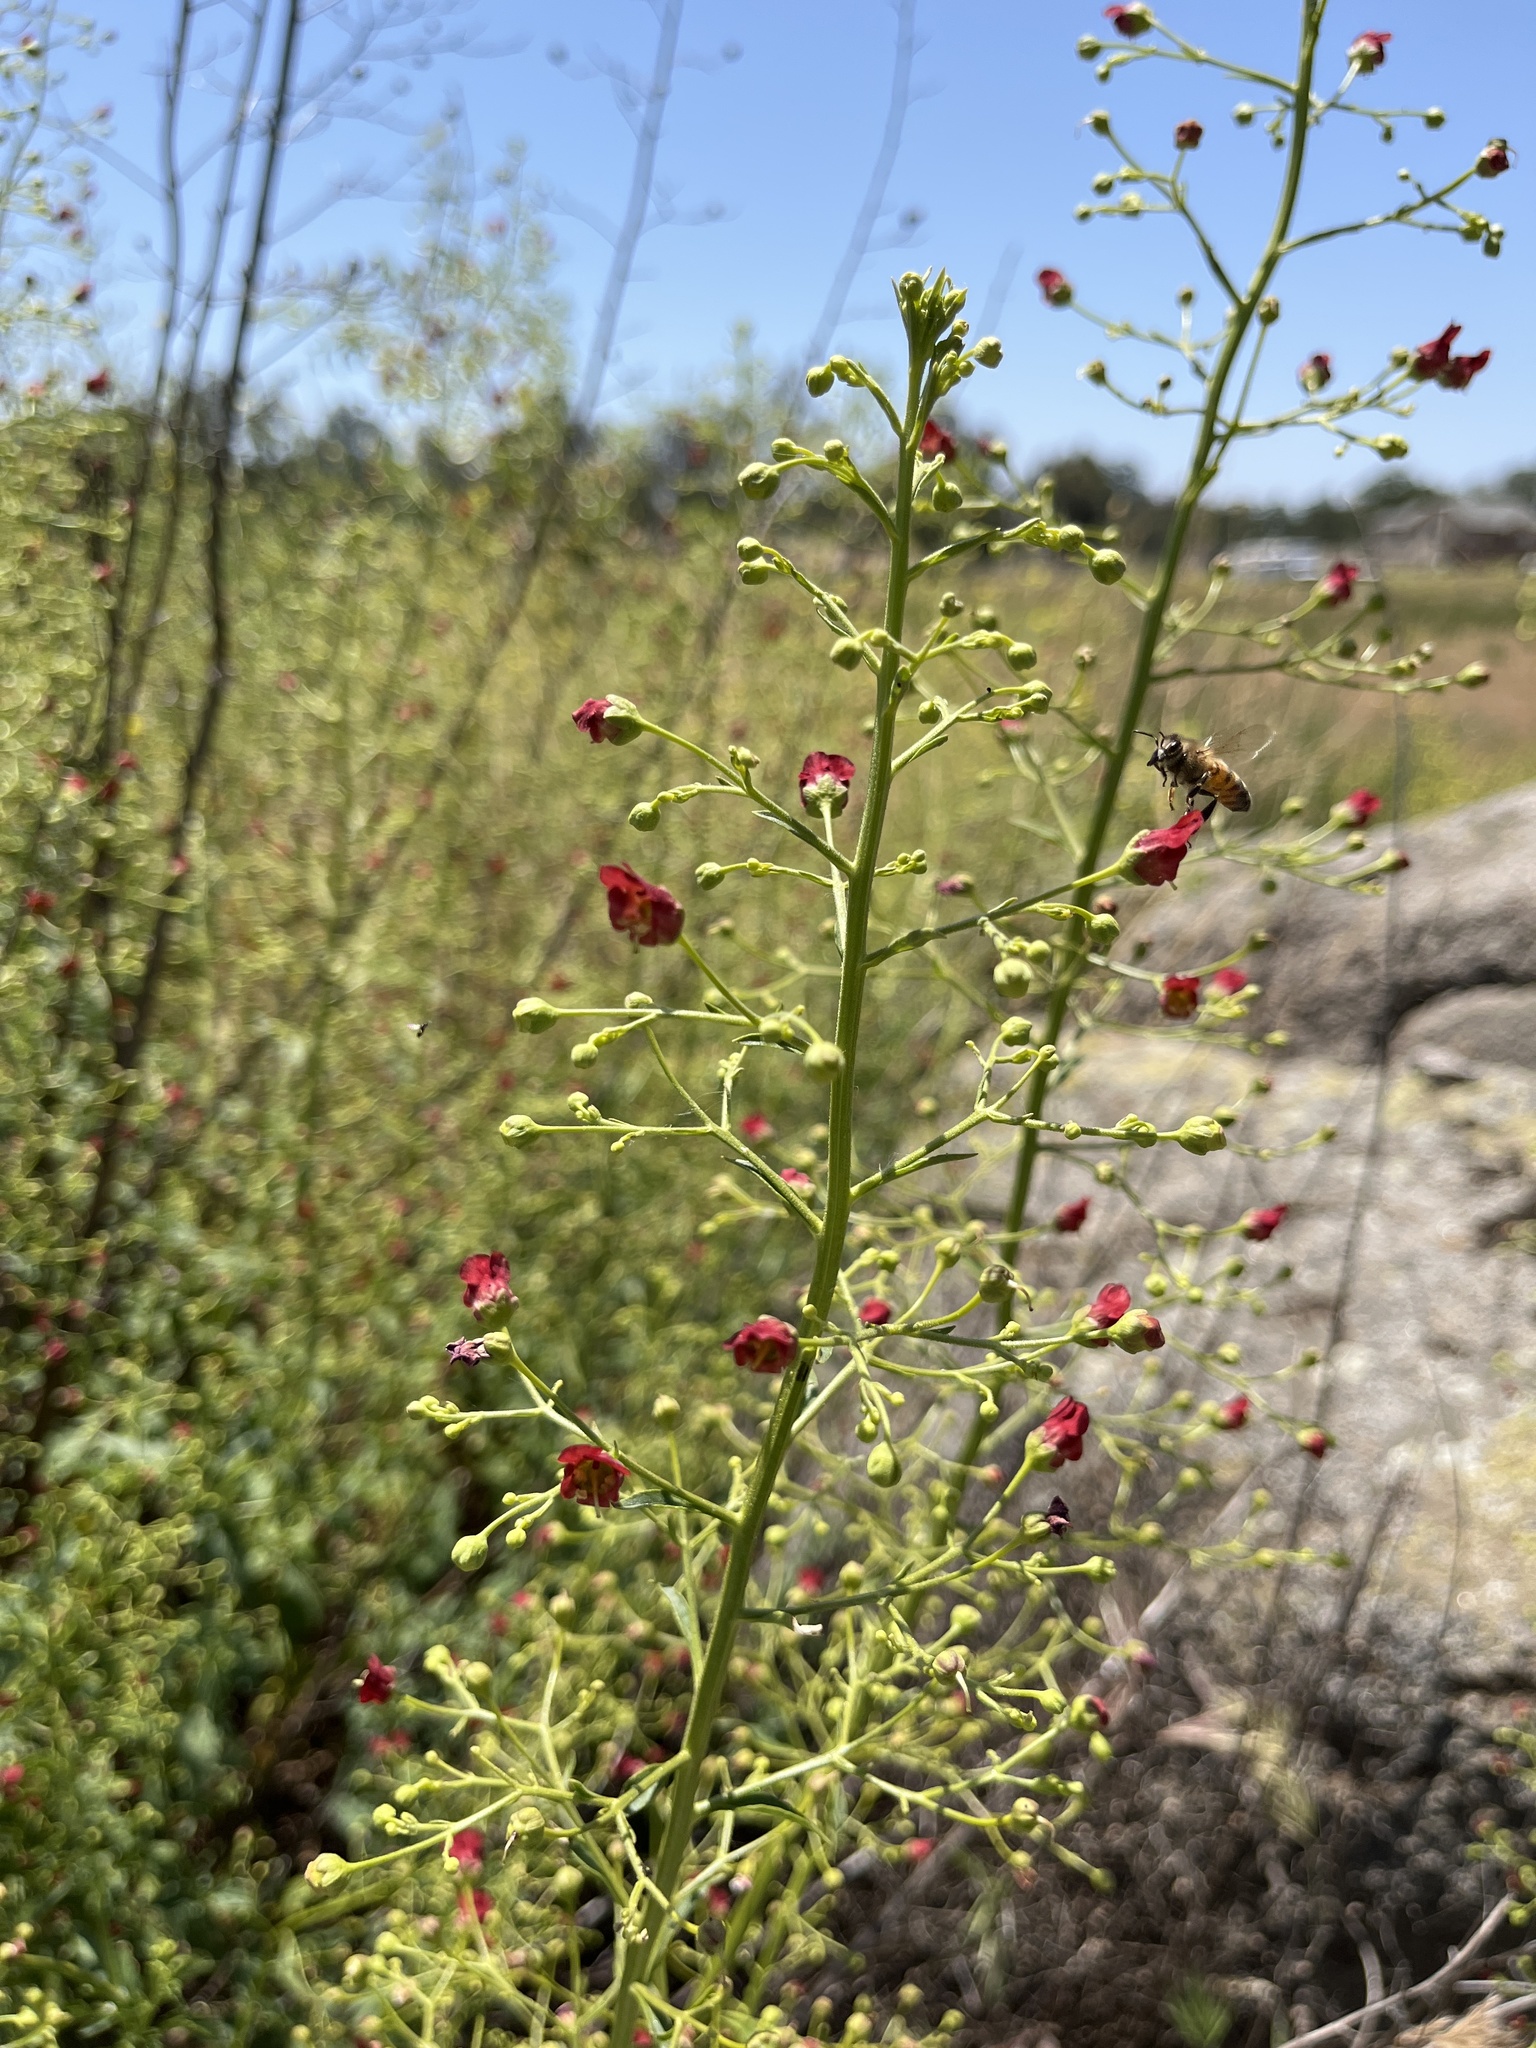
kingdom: Plantae
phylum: Tracheophyta
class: Magnoliopsida
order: Lamiales
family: Scrophulariaceae
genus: Scrophularia
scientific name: Scrophularia californica
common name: California figwort
